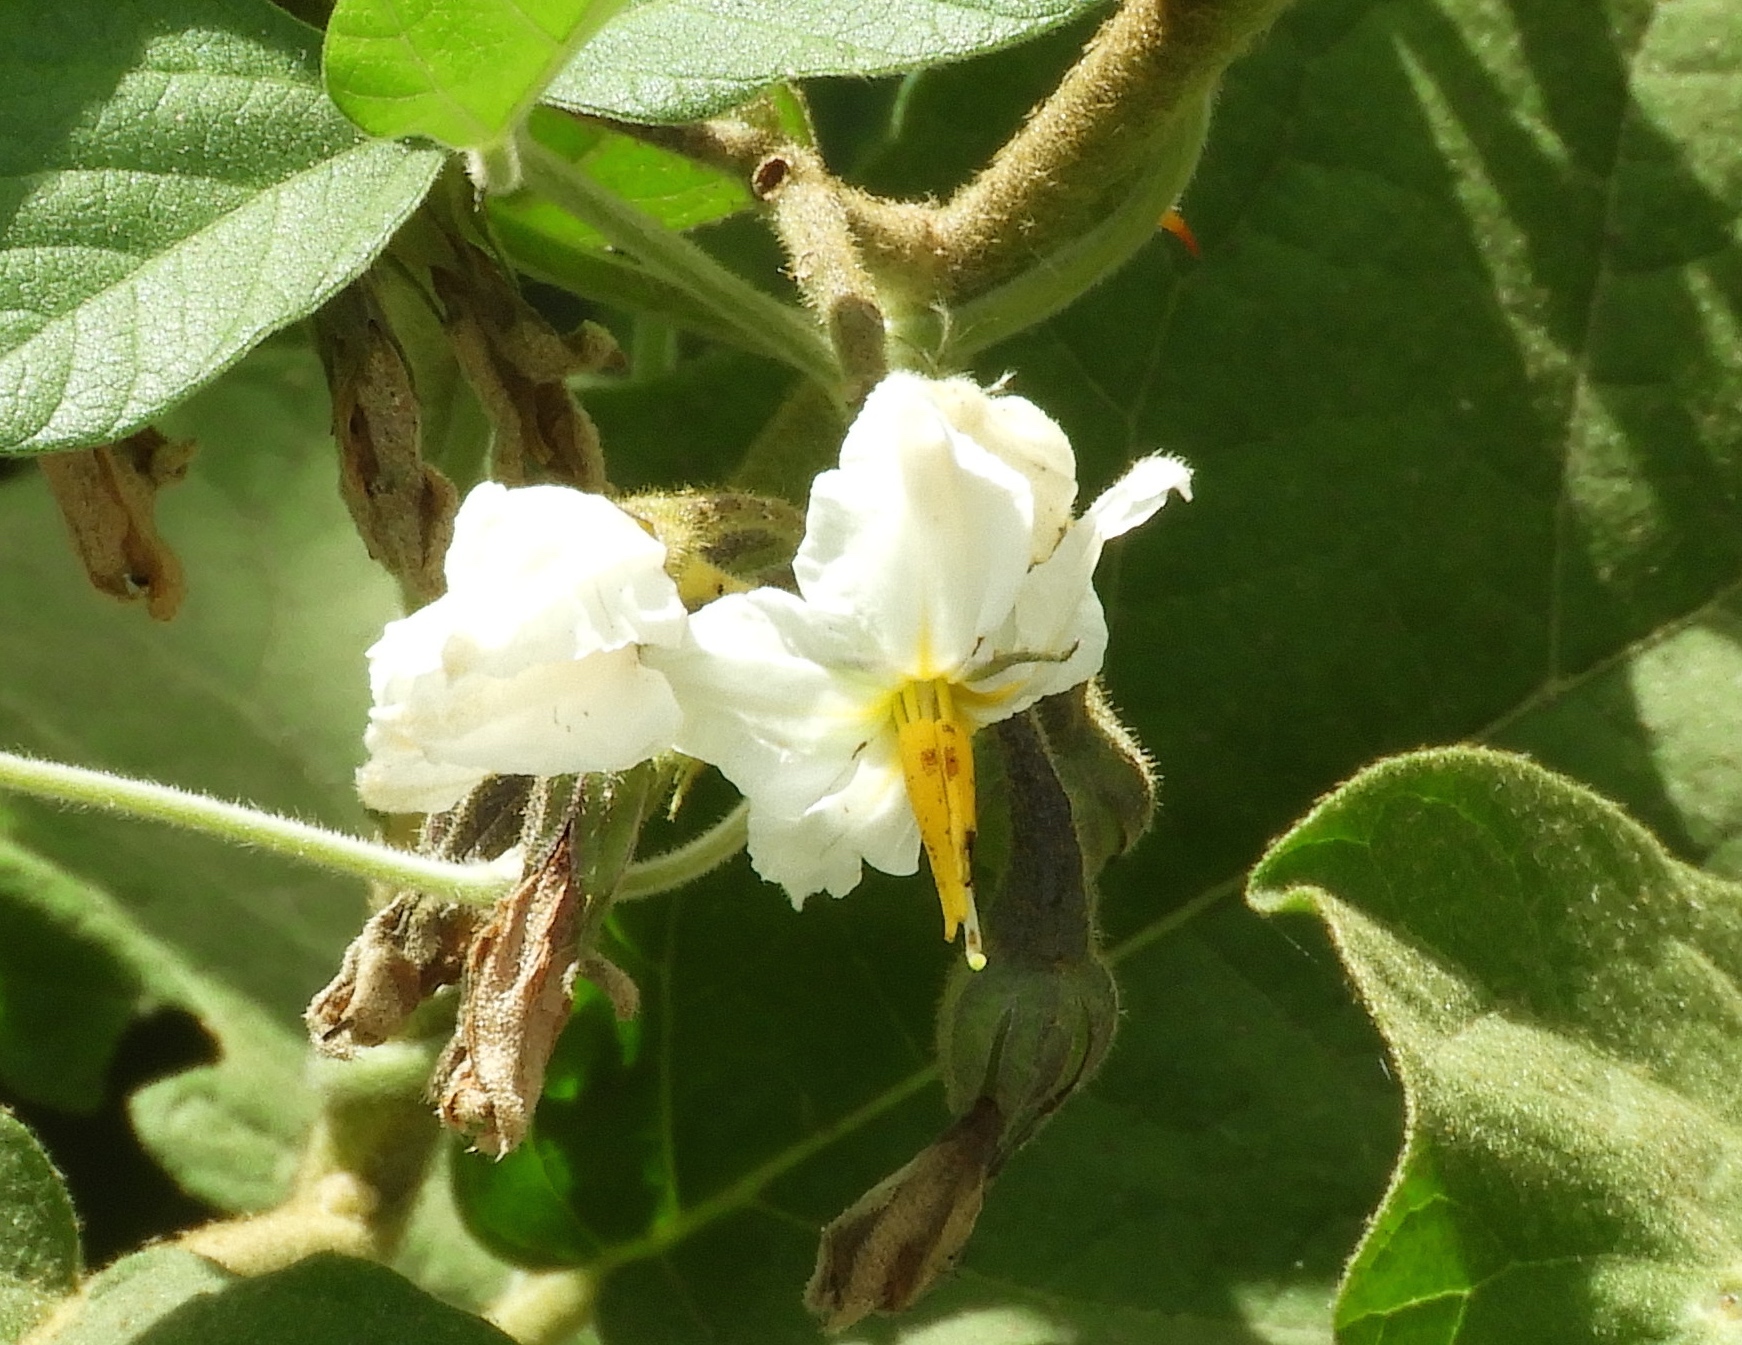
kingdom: Plantae
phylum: Tracheophyta
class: Magnoliopsida
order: Solanales
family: Solanaceae
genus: Solanum
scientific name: Solanum ferrugineum
